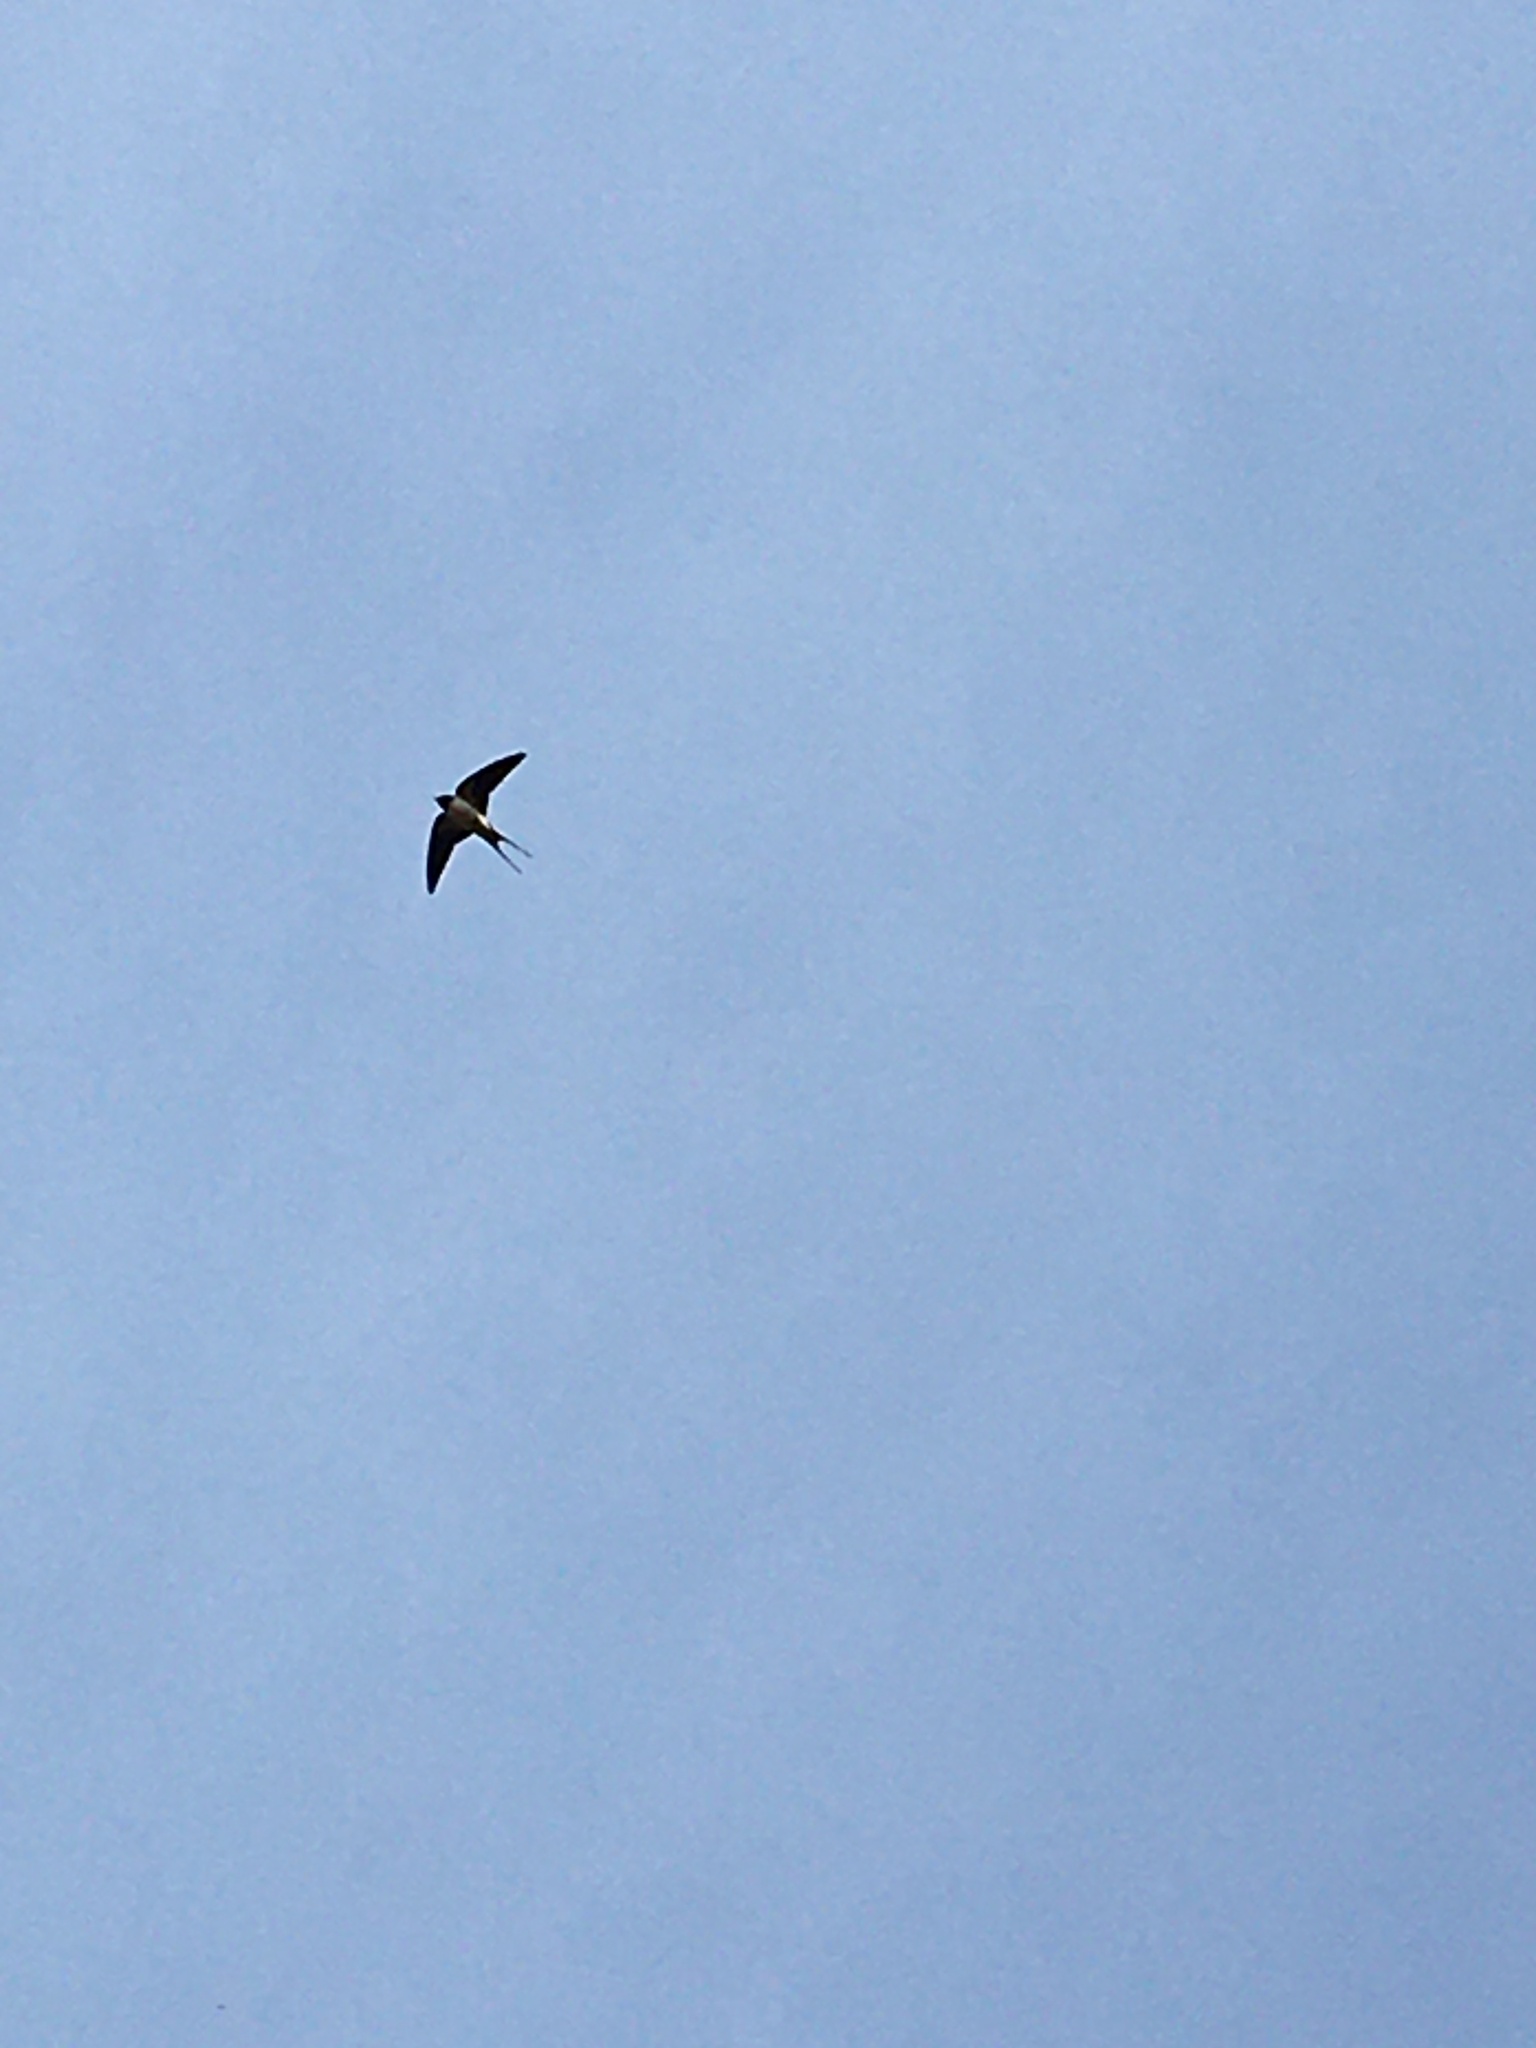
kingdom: Animalia
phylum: Chordata
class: Aves
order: Passeriformes
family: Hirundinidae
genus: Hirundo
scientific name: Hirundo rustica
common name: Barn swallow
